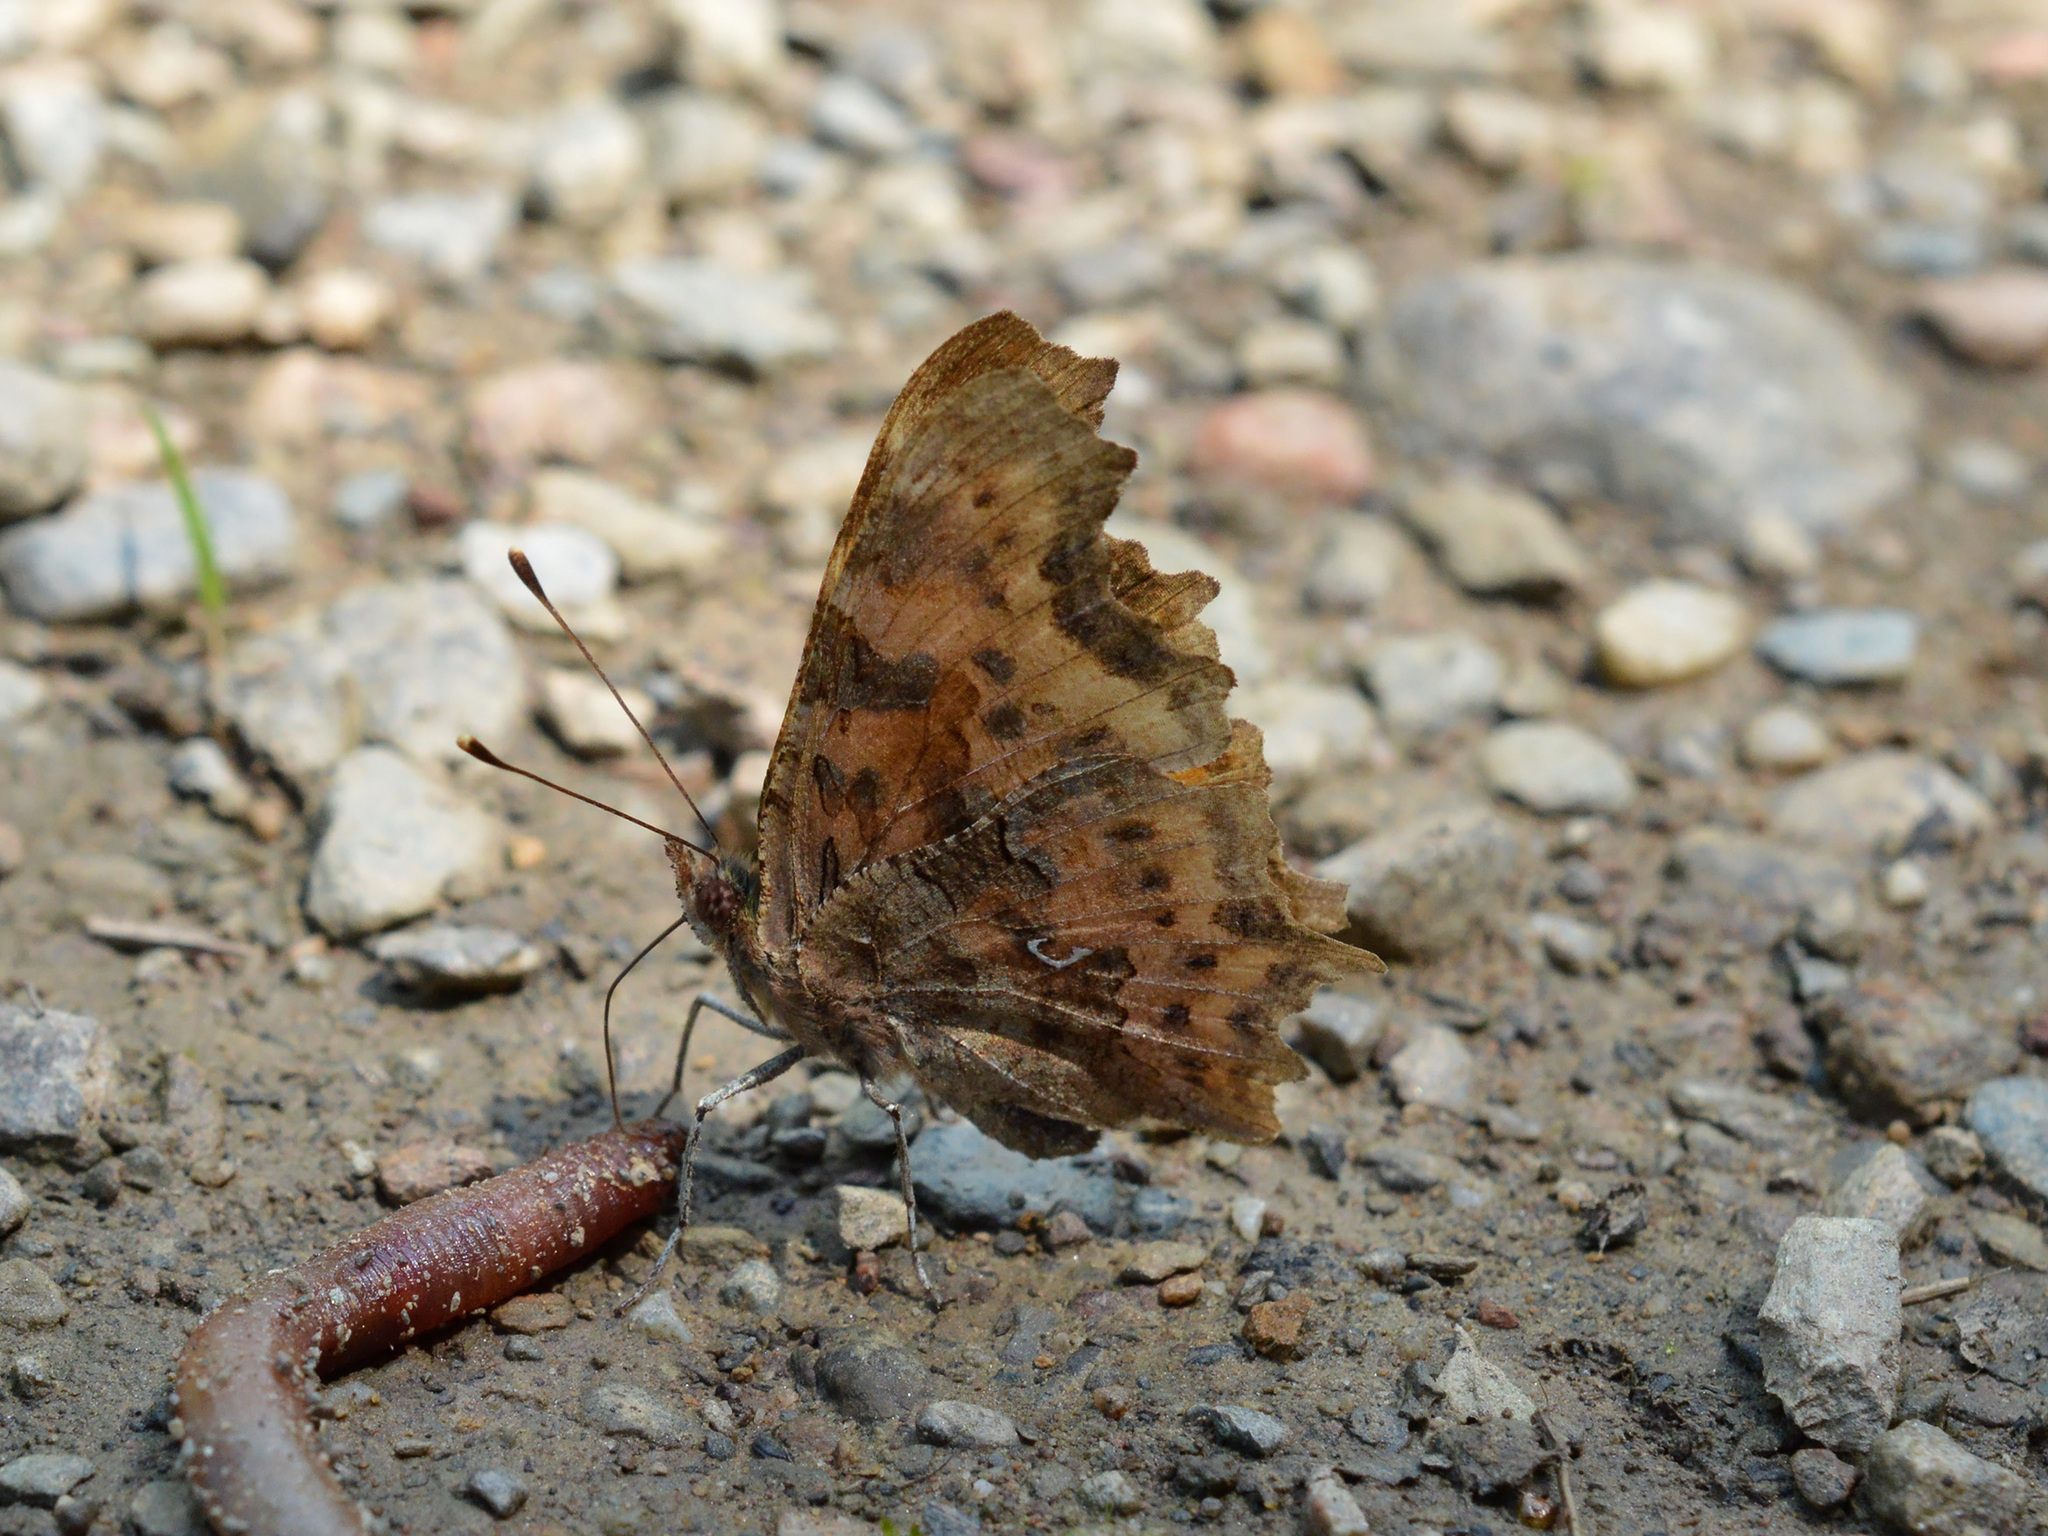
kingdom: Animalia
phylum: Arthropoda
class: Insecta
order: Lepidoptera
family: Nymphalidae
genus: Polygonia
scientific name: Polygonia c-album
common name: Comma
